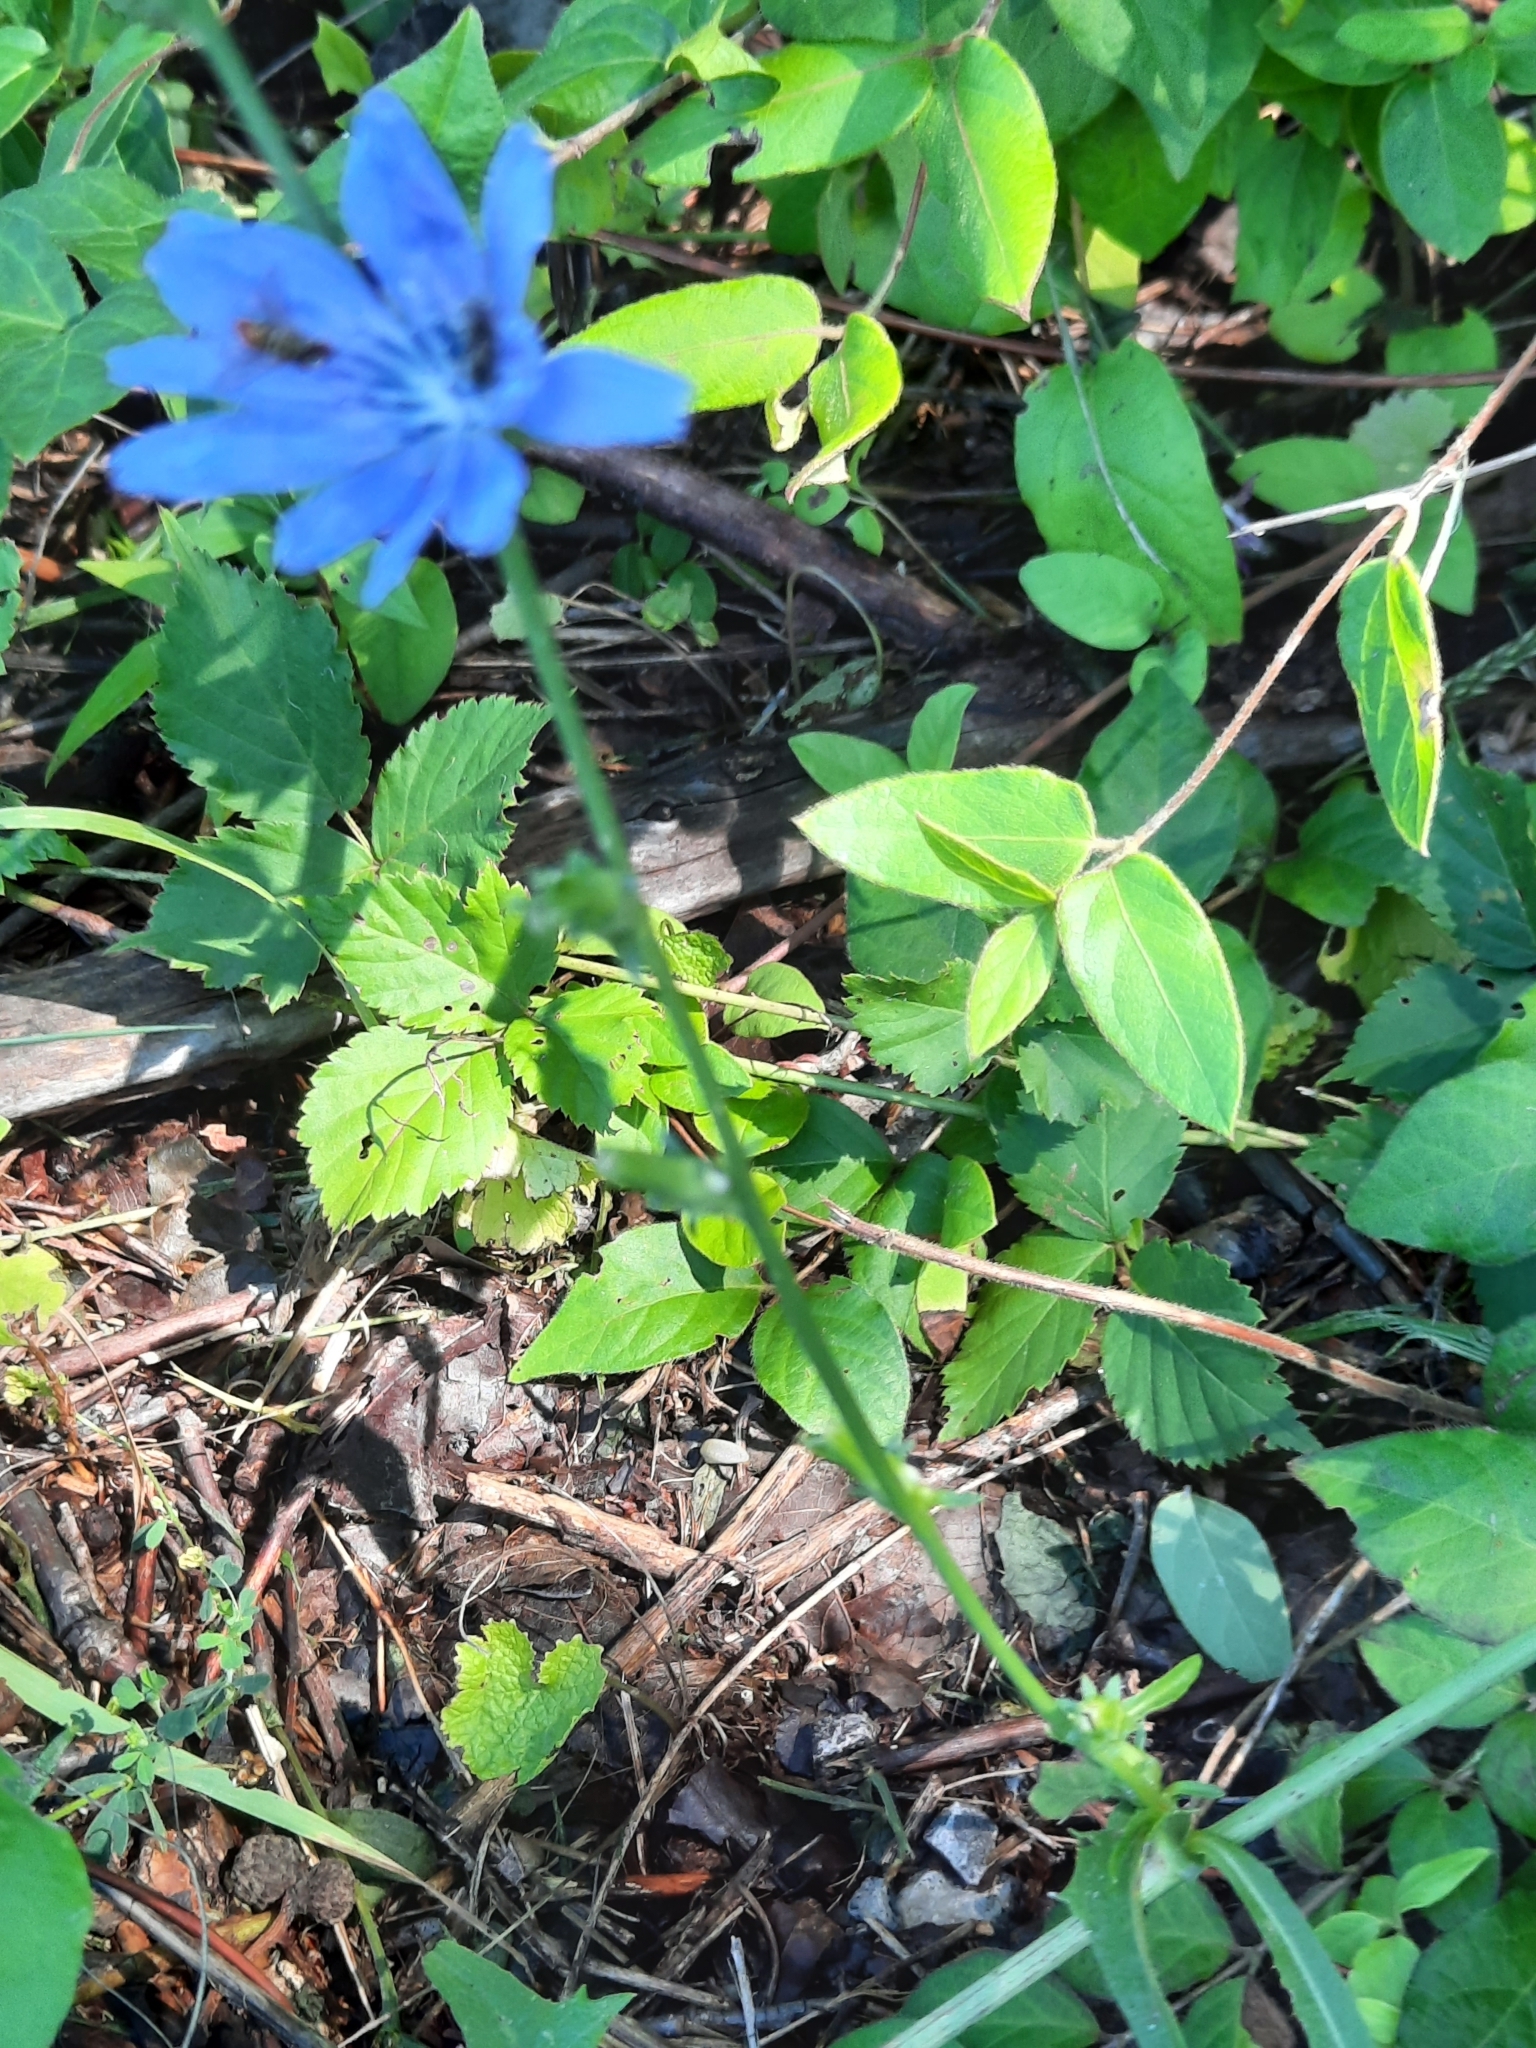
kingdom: Plantae
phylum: Tracheophyta
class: Magnoliopsida
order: Asterales
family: Asteraceae
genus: Cichorium
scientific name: Cichorium intybus
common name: Chicory
